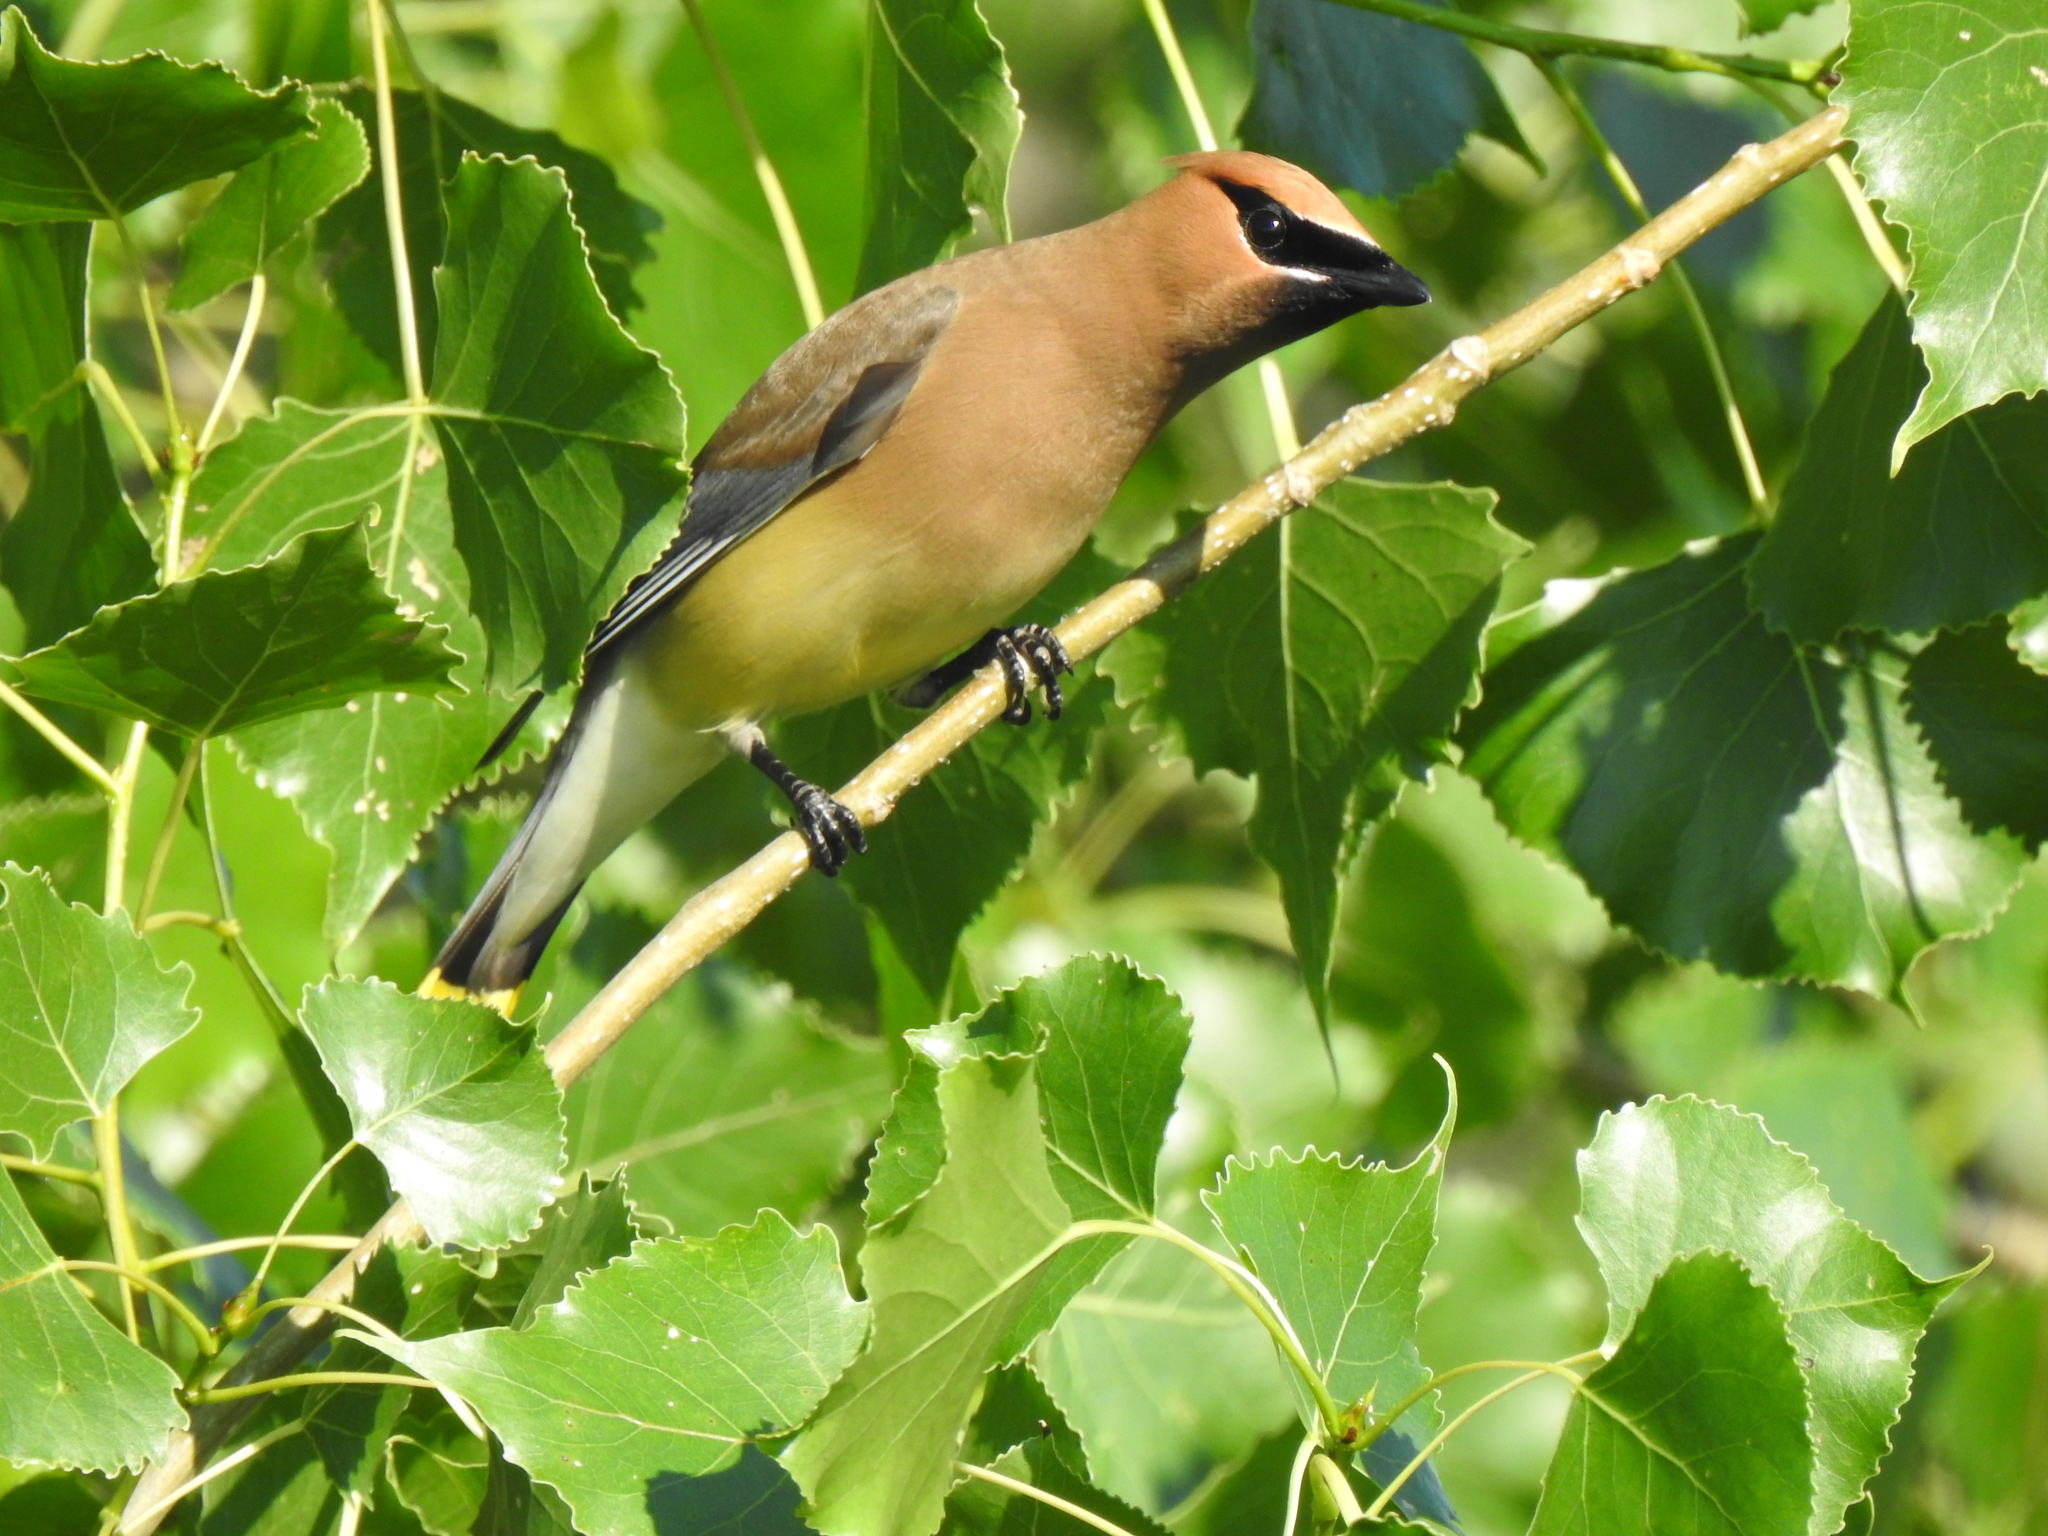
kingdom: Animalia
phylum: Chordata
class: Aves
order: Passeriformes
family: Bombycillidae
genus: Bombycilla
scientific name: Bombycilla cedrorum
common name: Cedar waxwing
